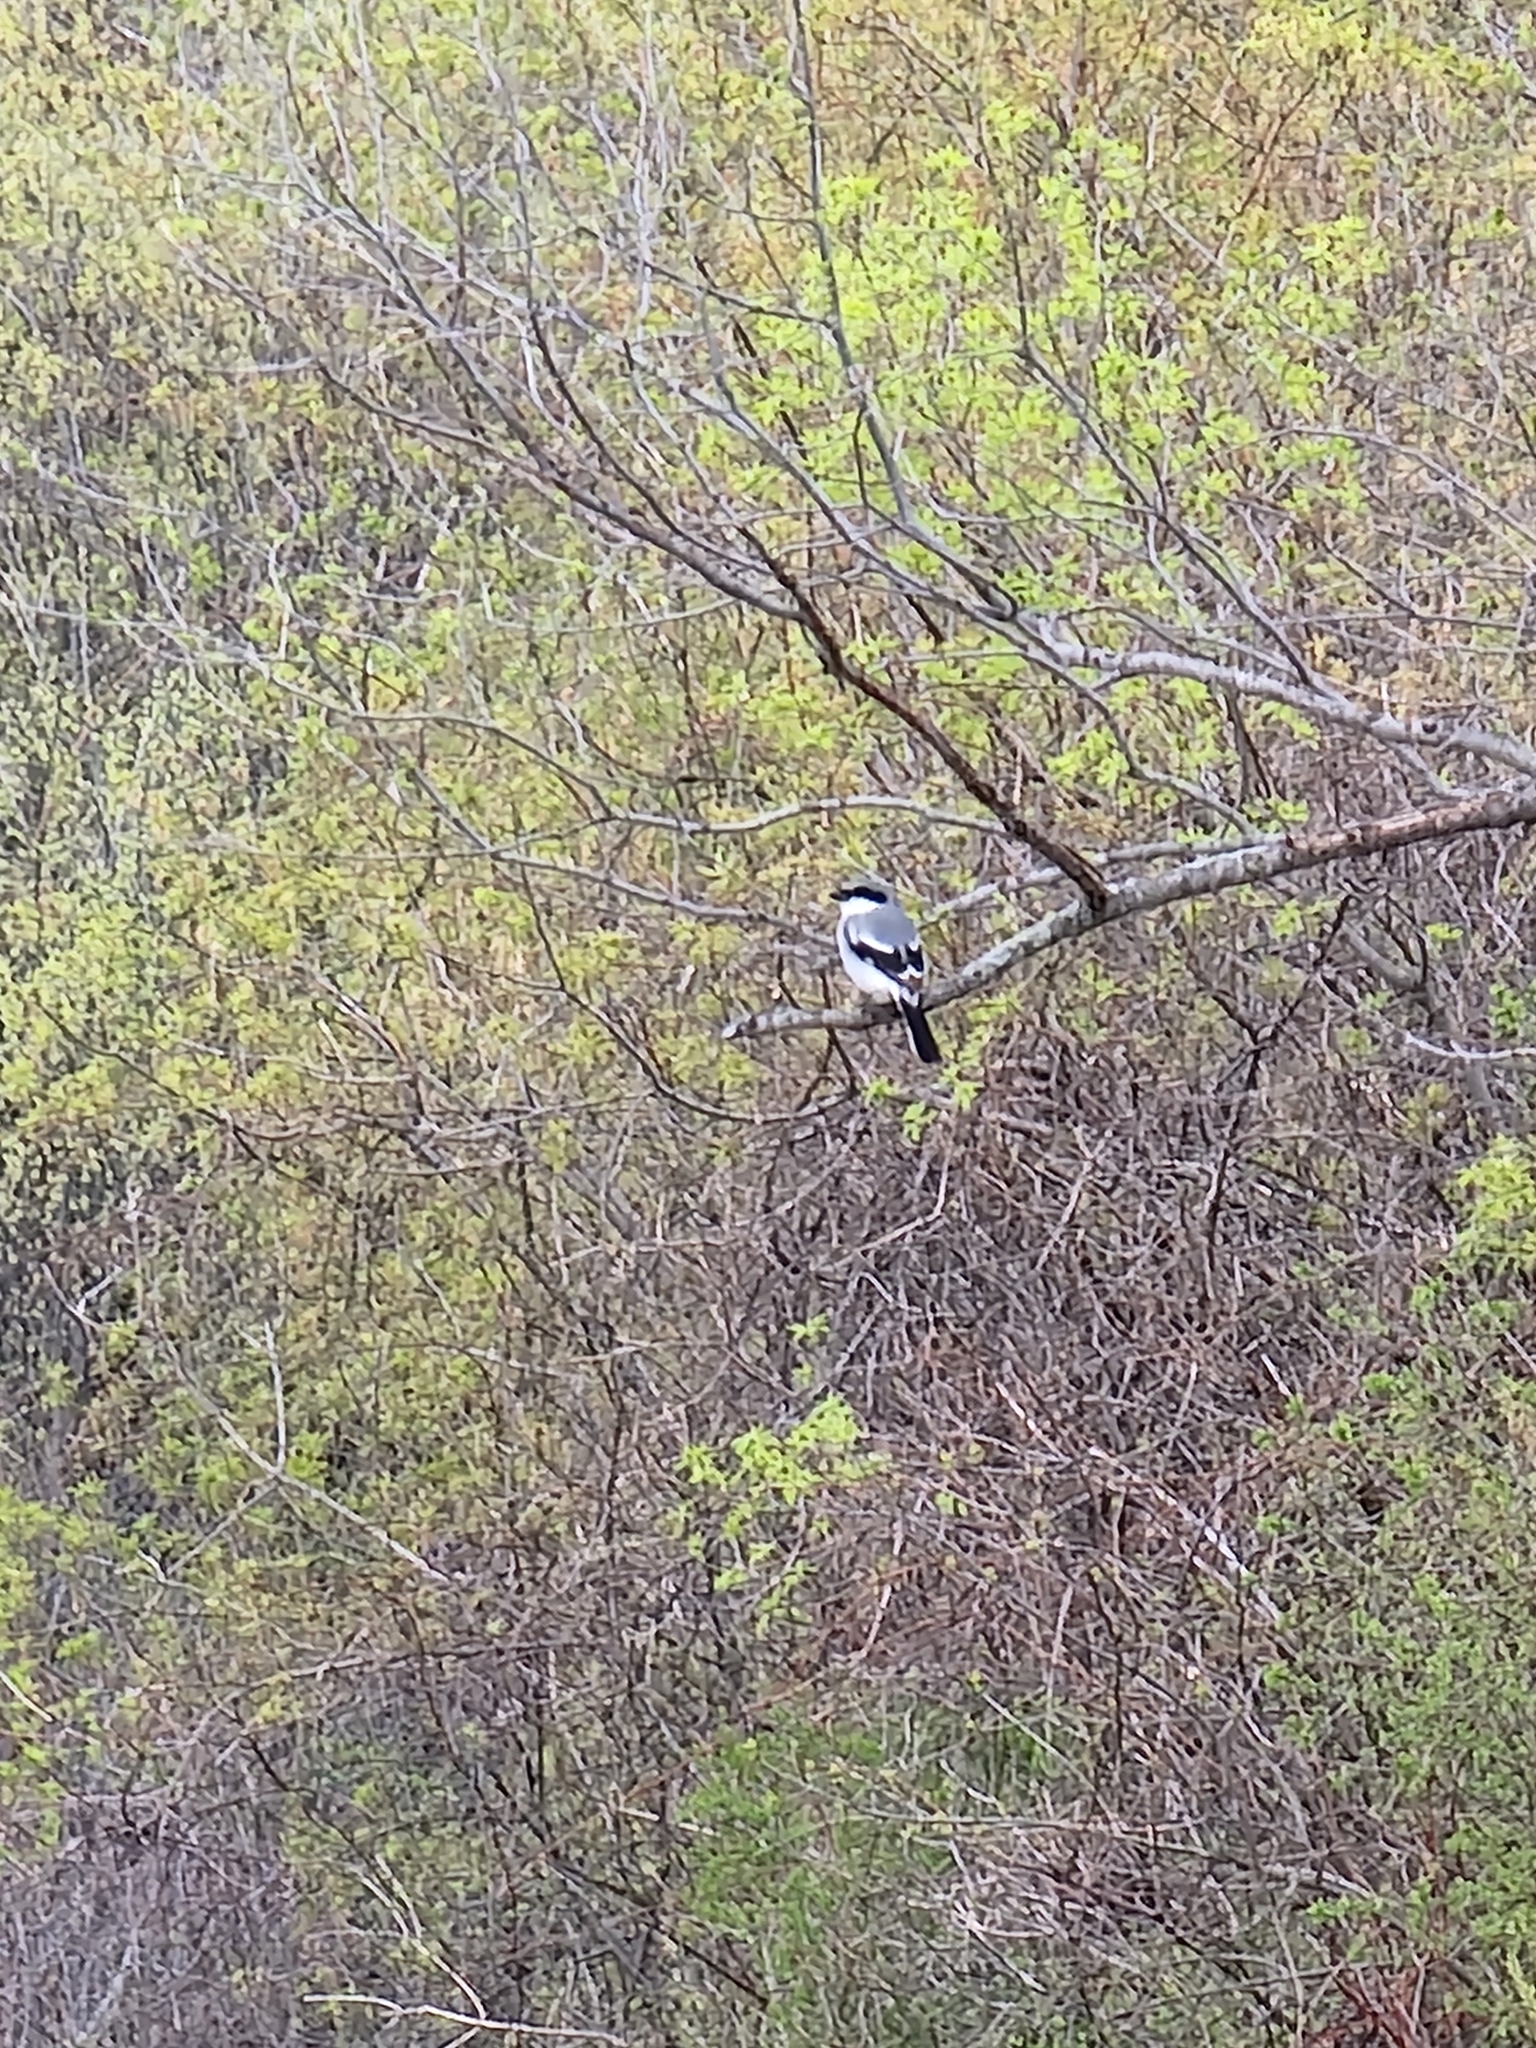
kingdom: Animalia
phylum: Chordata
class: Aves
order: Passeriformes
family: Laniidae
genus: Lanius
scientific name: Lanius ludovicianus
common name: Loggerhead shrike
